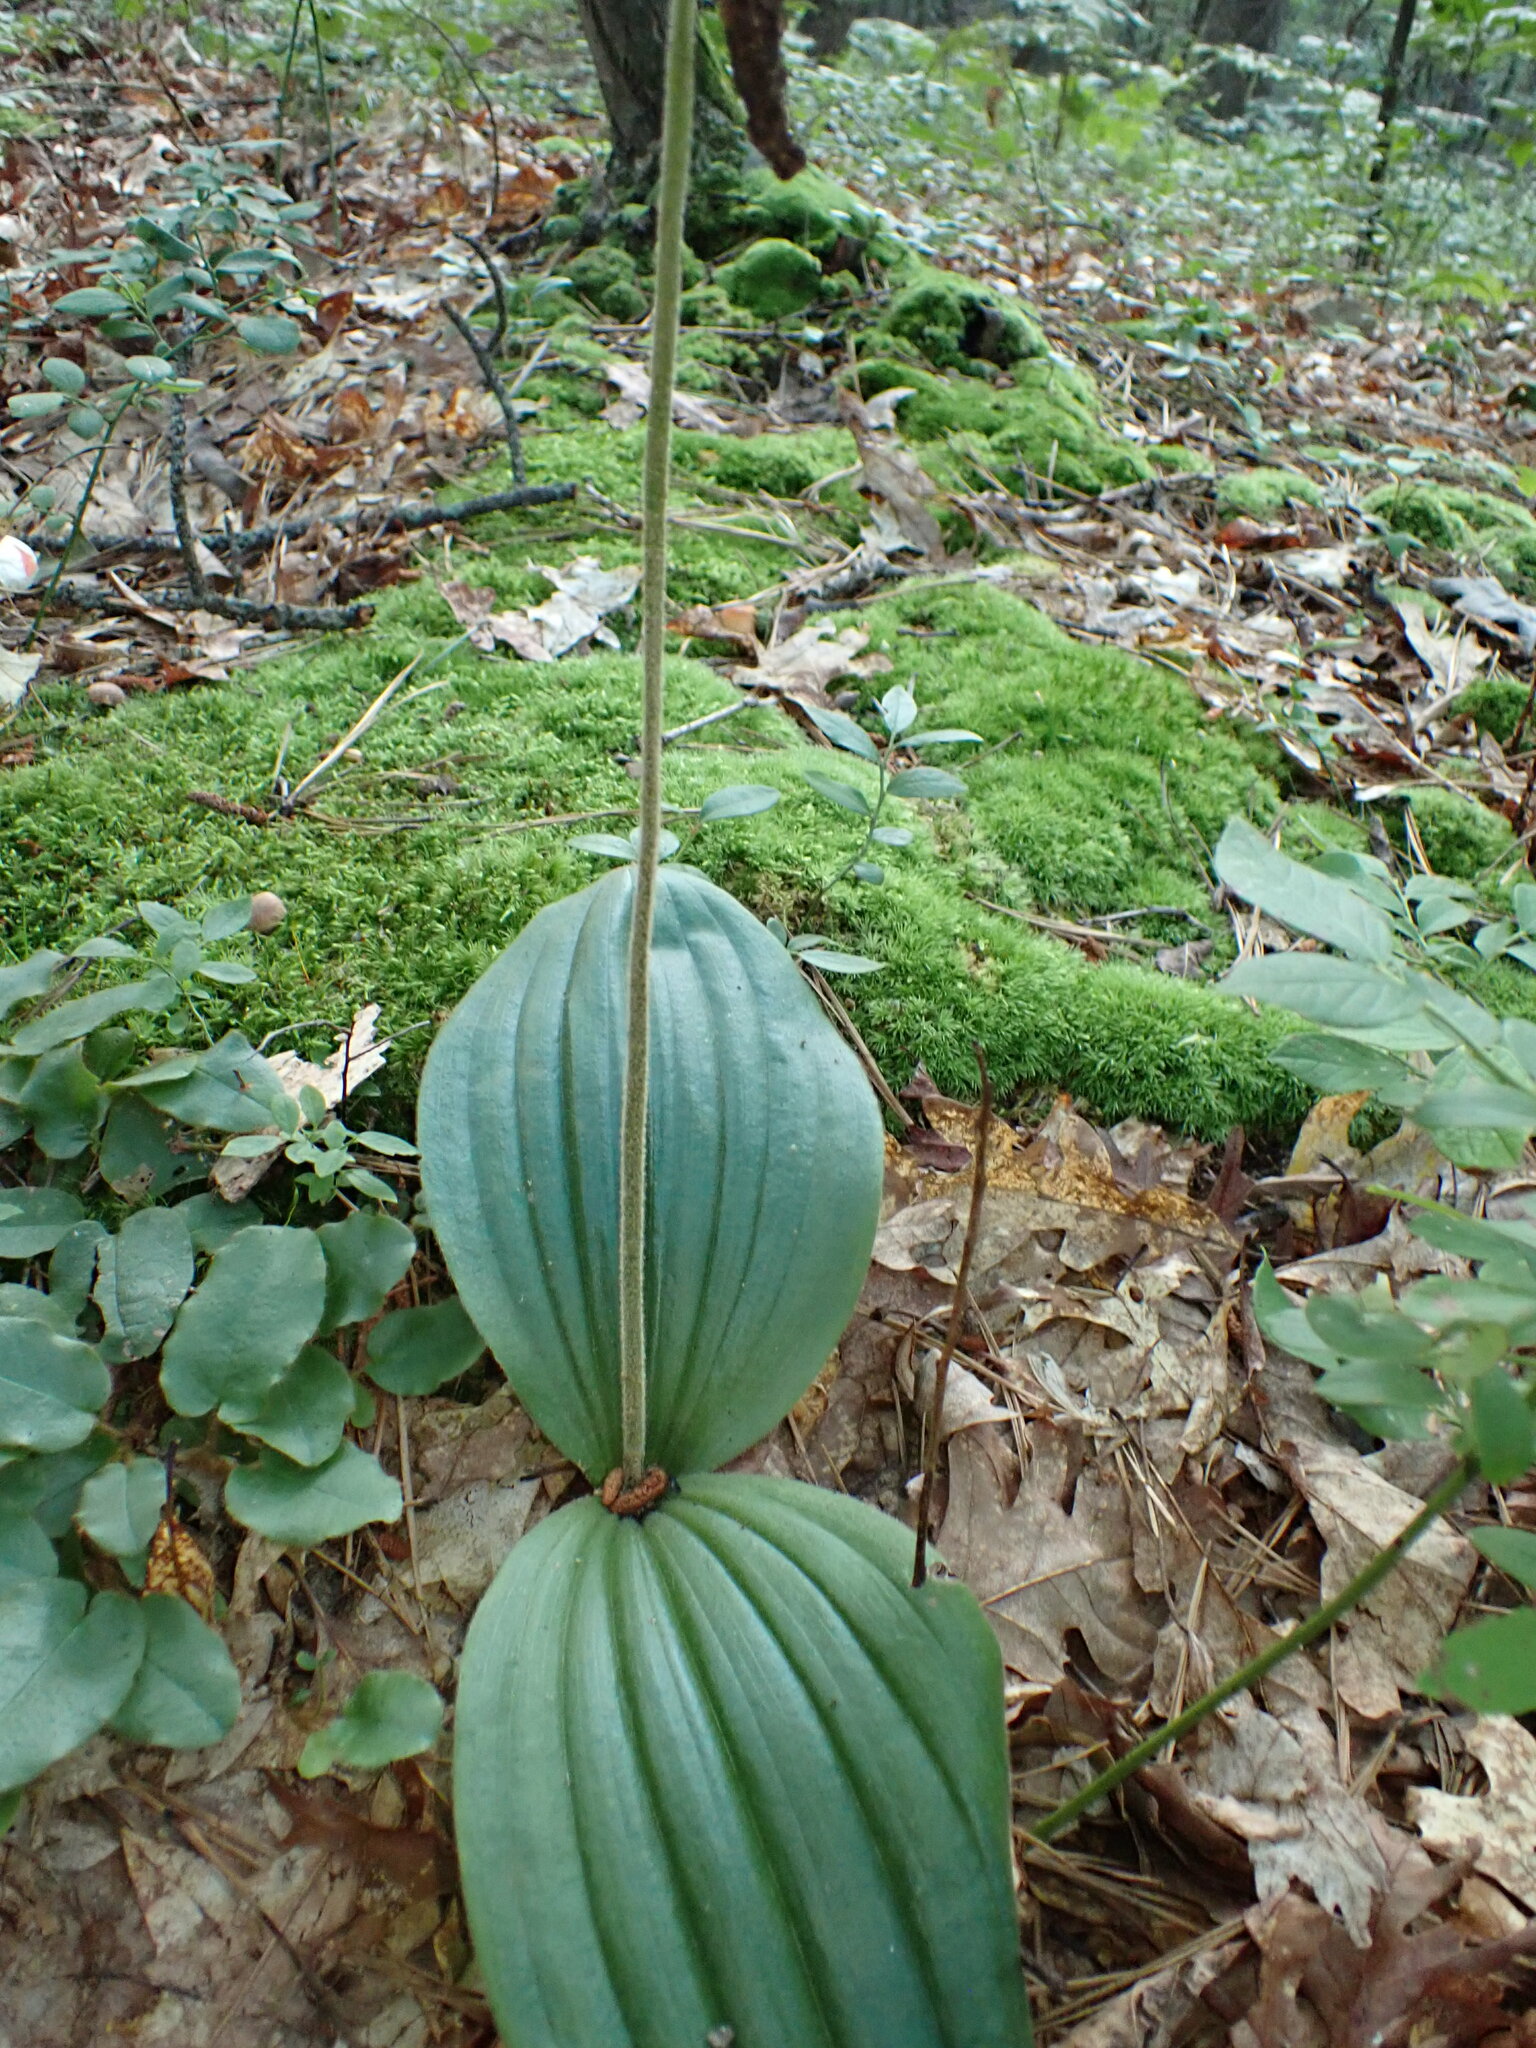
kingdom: Plantae
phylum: Tracheophyta
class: Liliopsida
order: Asparagales
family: Orchidaceae
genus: Cypripedium
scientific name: Cypripedium acaule
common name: Pink lady's-slipper
